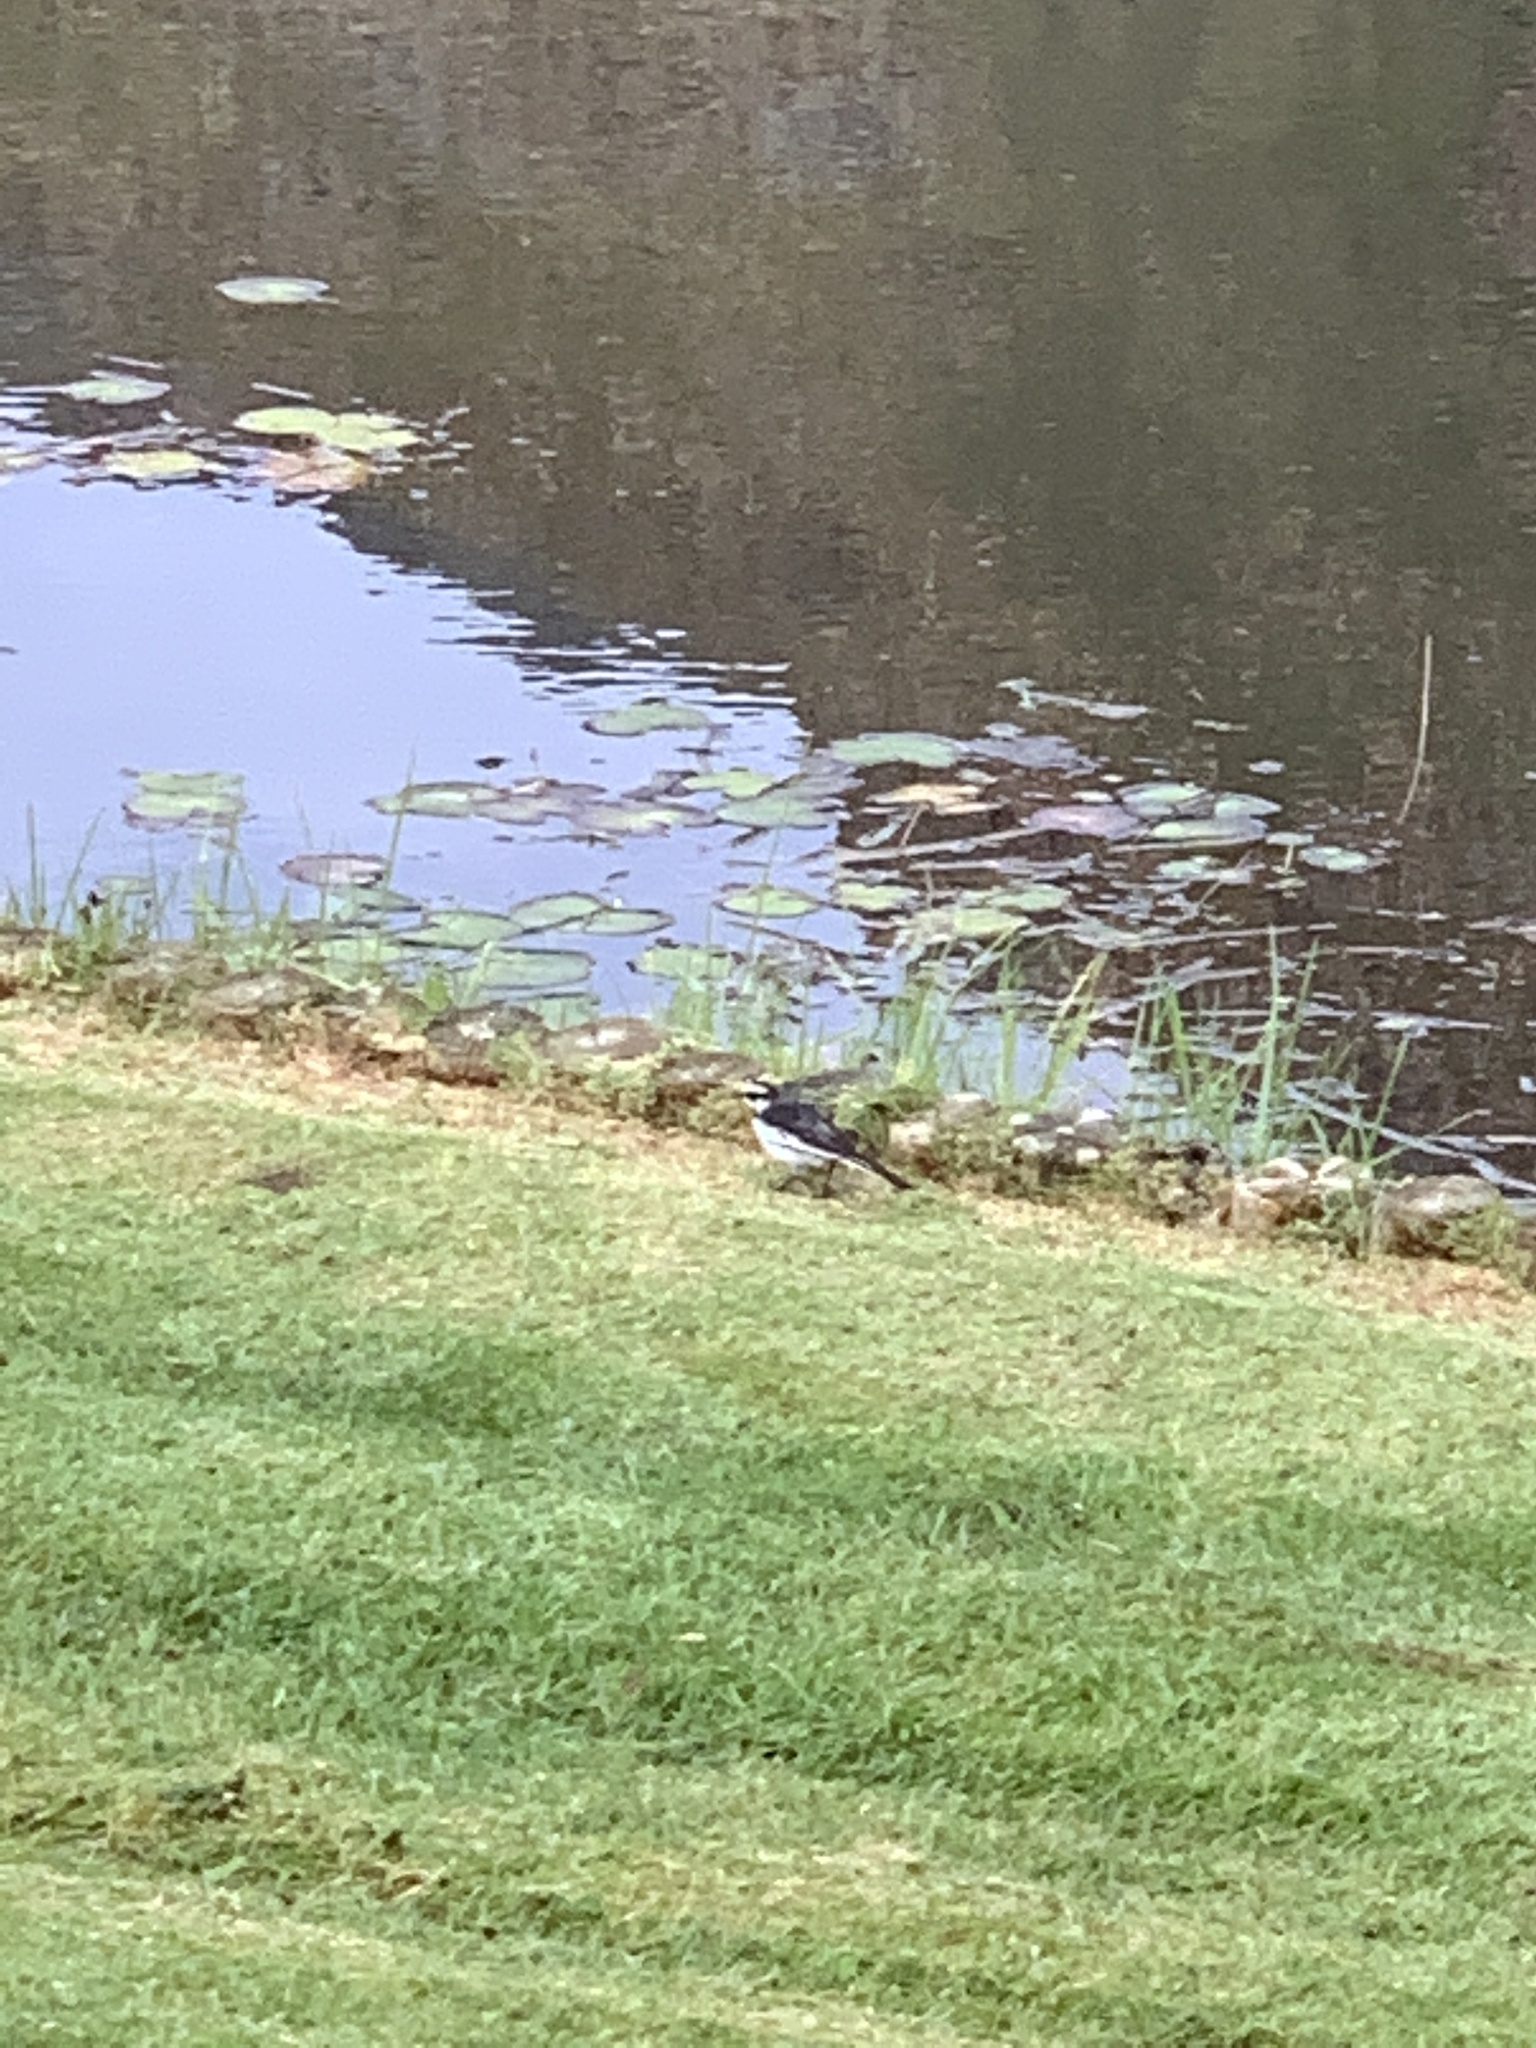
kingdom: Animalia
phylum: Chordata
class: Aves
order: Passeriformes
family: Motacillidae
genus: Motacilla
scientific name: Motacilla aguimp
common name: African pied wagtail
